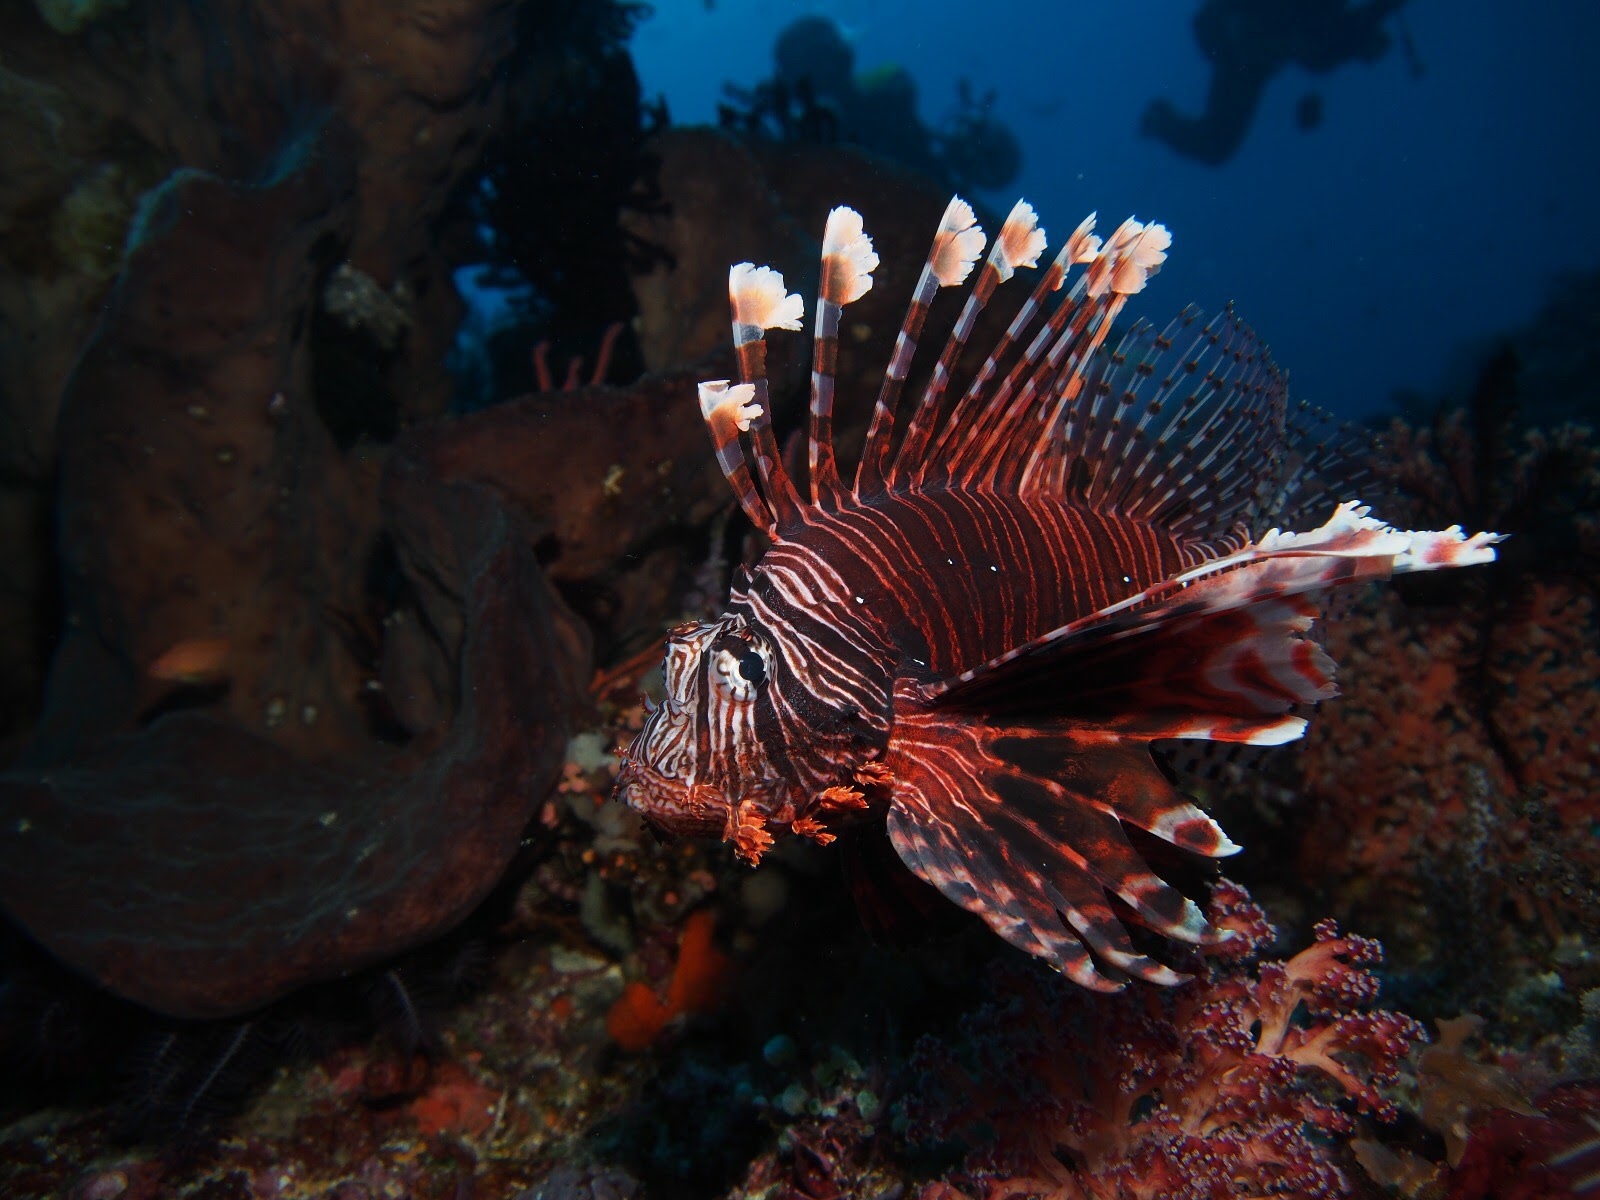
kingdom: Animalia
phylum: Chordata
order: Scorpaeniformes
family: Scorpaenidae
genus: Pterois
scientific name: Pterois volitans
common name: Lionfish
